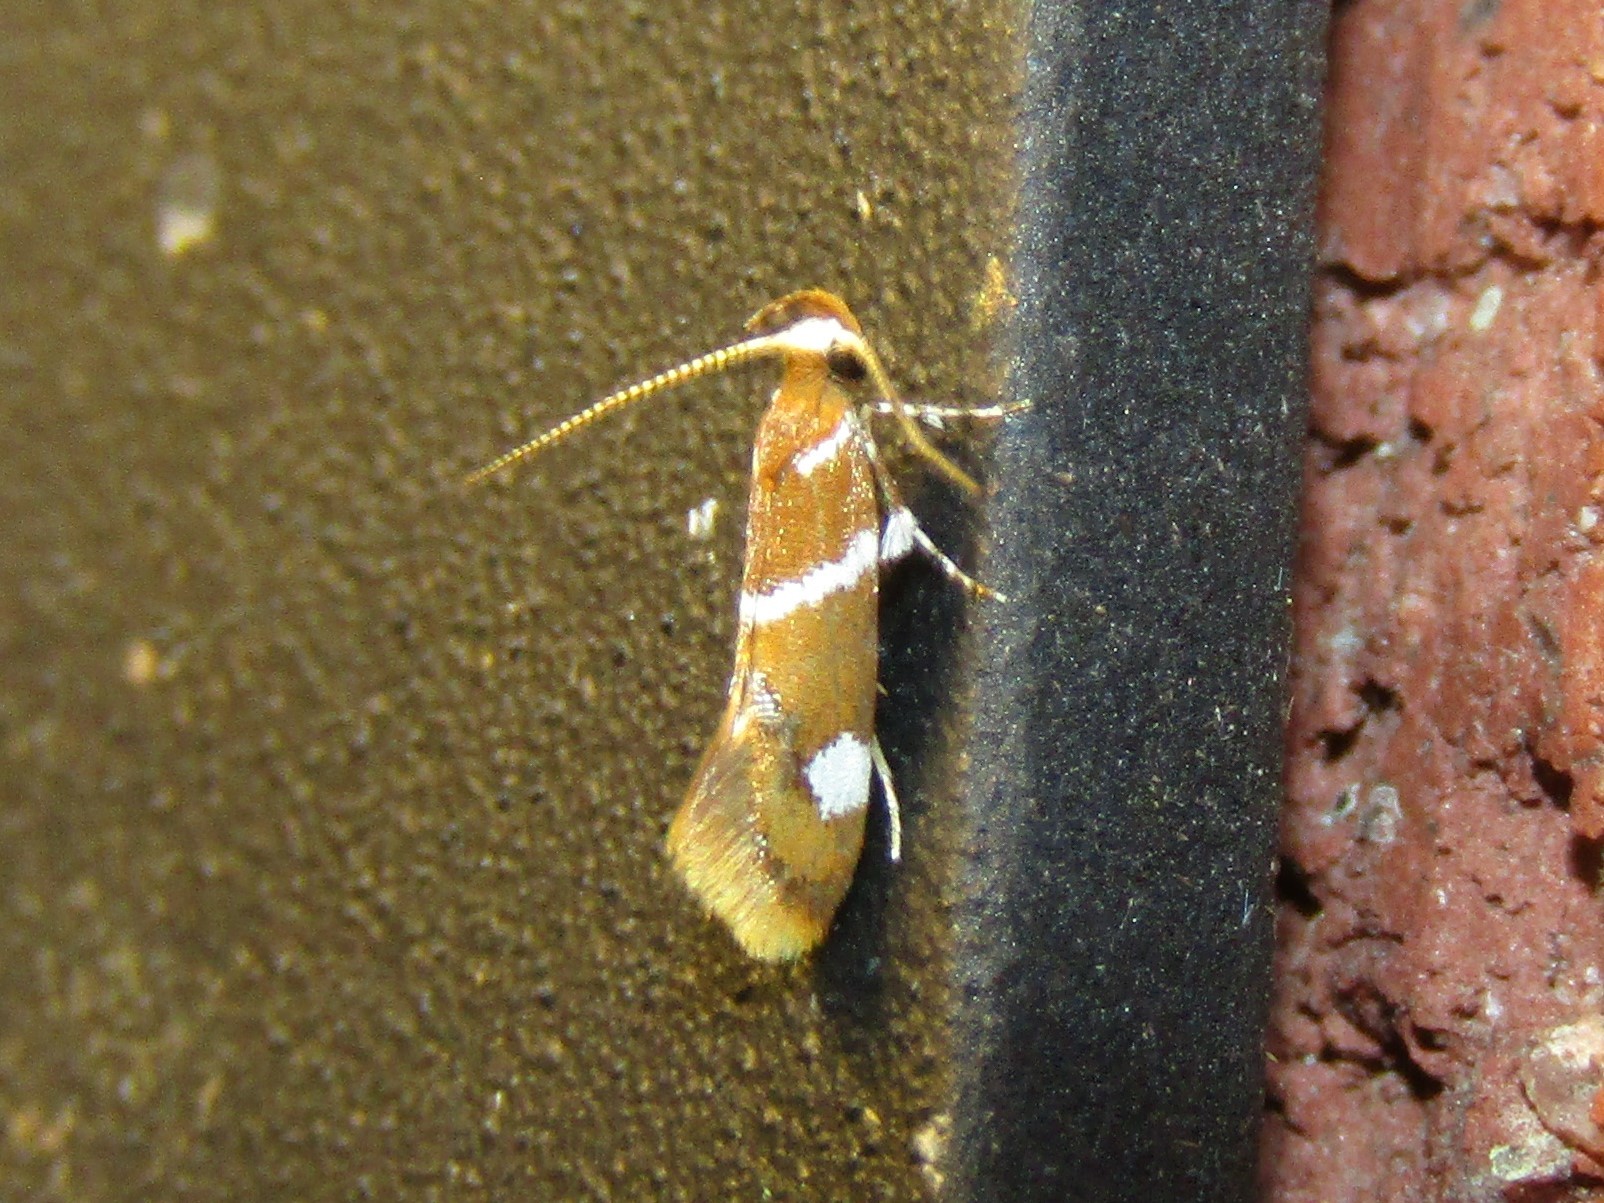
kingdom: Animalia
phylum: Arthropoda
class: Insecta
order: Lepidoptera
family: Oecophoridae
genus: Promalactis
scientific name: Promalactis suzukiella
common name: Moth
